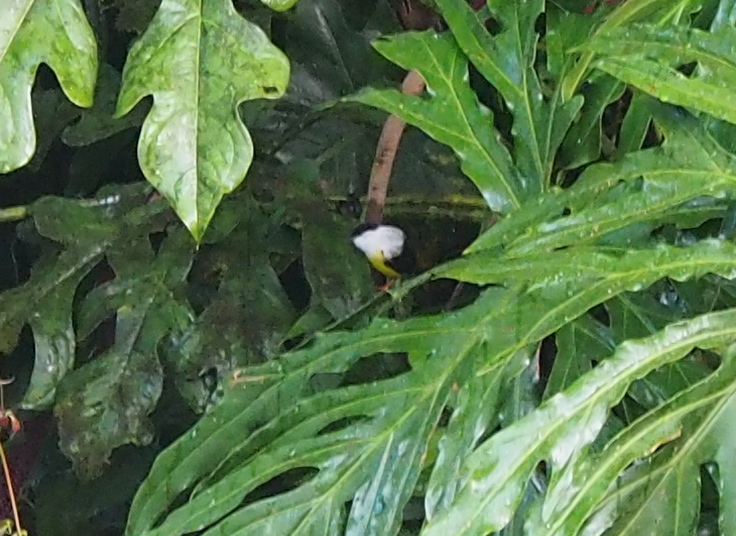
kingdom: Animalia
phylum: Chordata
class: Aves
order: Passeriformes
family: Pipridae
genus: Manacus
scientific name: Manacus candei
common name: White-collared manakin
